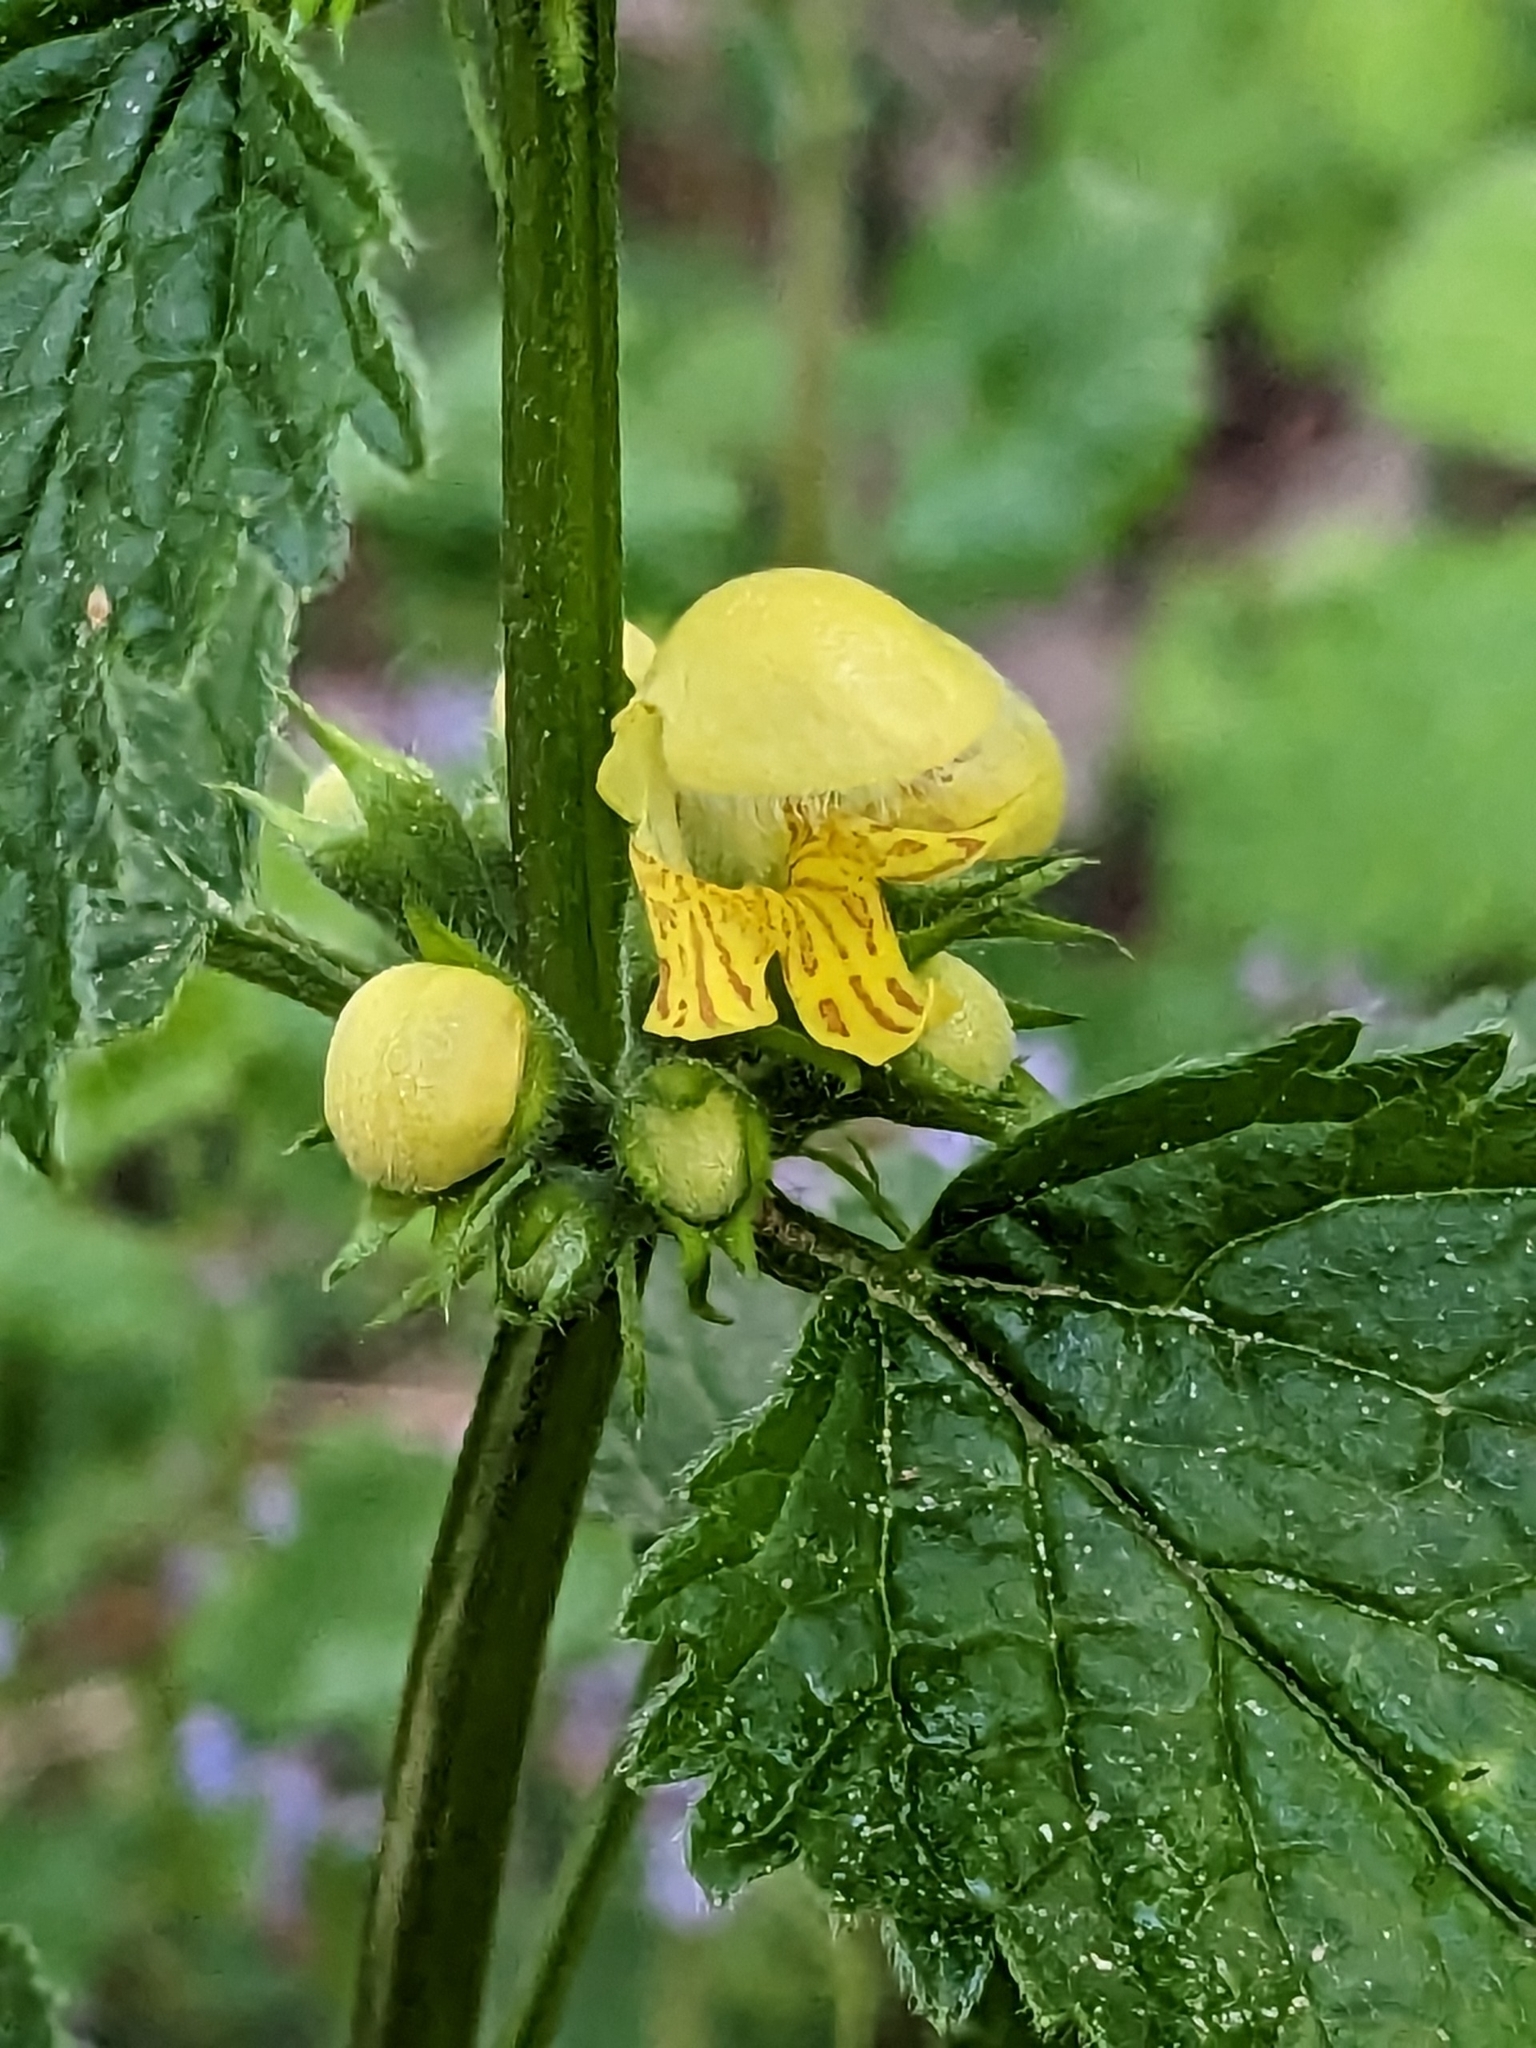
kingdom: Plantae
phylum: Tracheophyta
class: Magnoliopsida
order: Lamiales
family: Lamiaceae
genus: Lamium
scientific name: Lamium galeobdolon
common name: Yellow archangel
